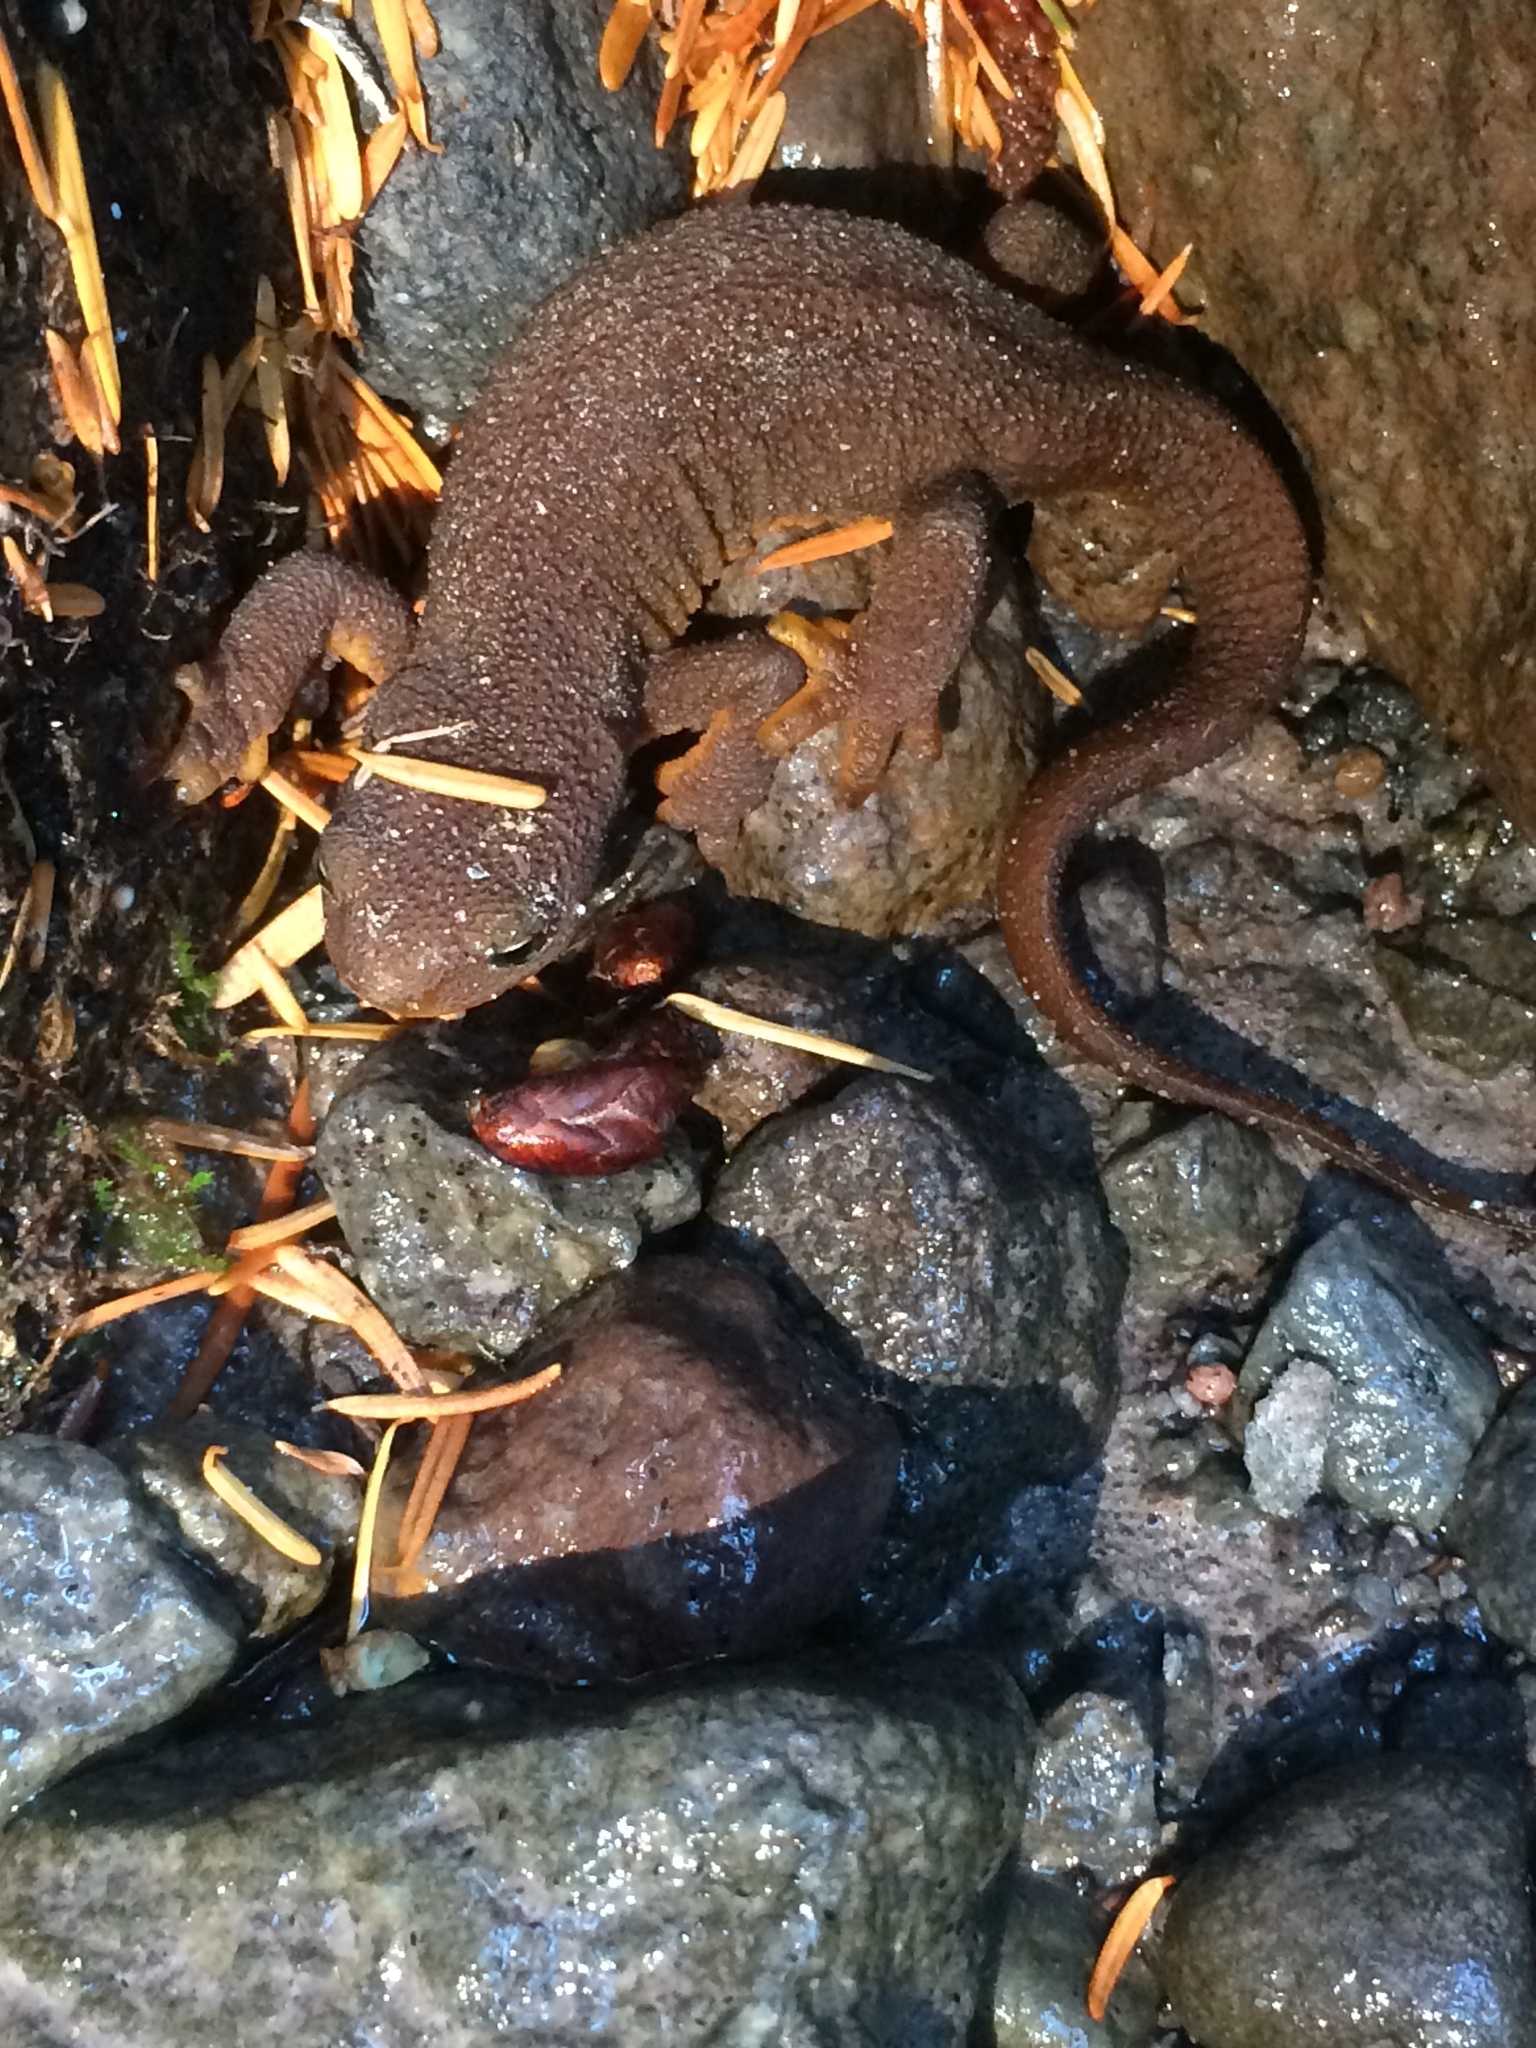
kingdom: Animalia
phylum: Chordata
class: Amphibia
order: Caudata
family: Salamandridae
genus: Taricha
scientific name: Taricha granulosa
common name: Roughskin newt
